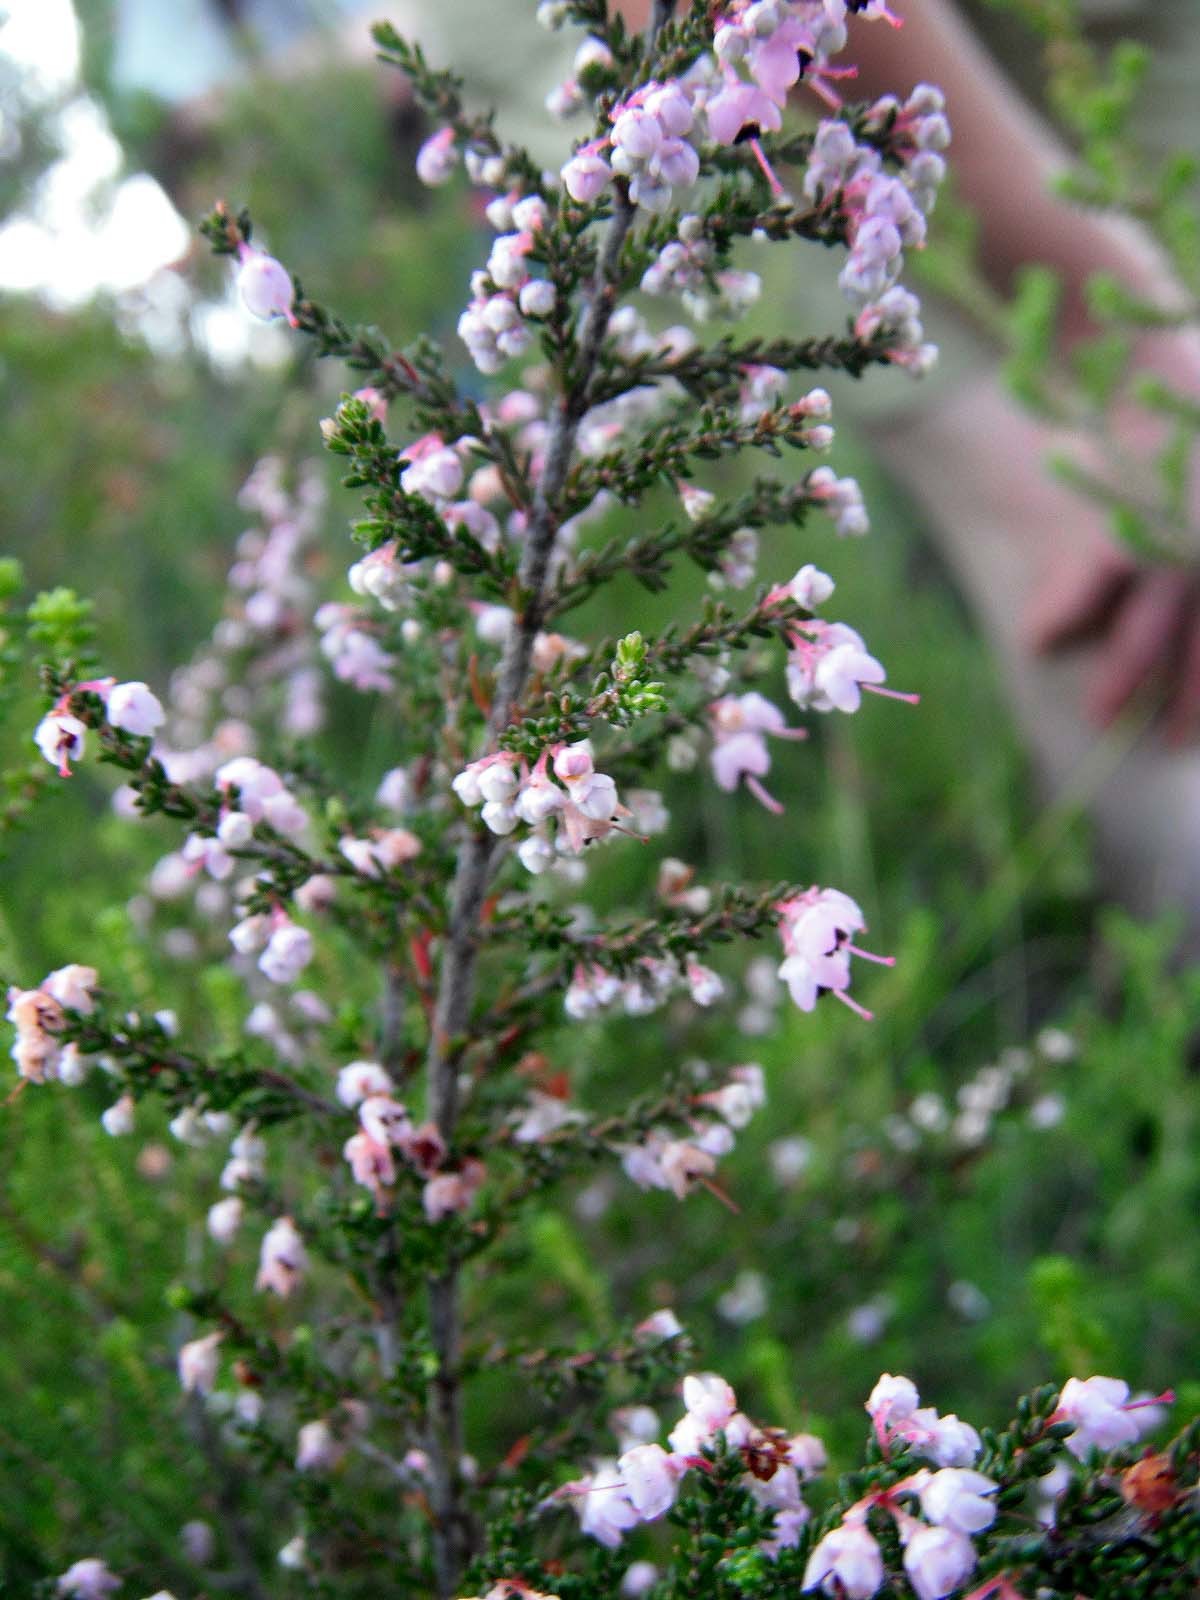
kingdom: Plantae
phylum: Tracheophyta
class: Magnoliopsida
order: Ericales
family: Ericaceae
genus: Erica
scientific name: Erica sparsa
